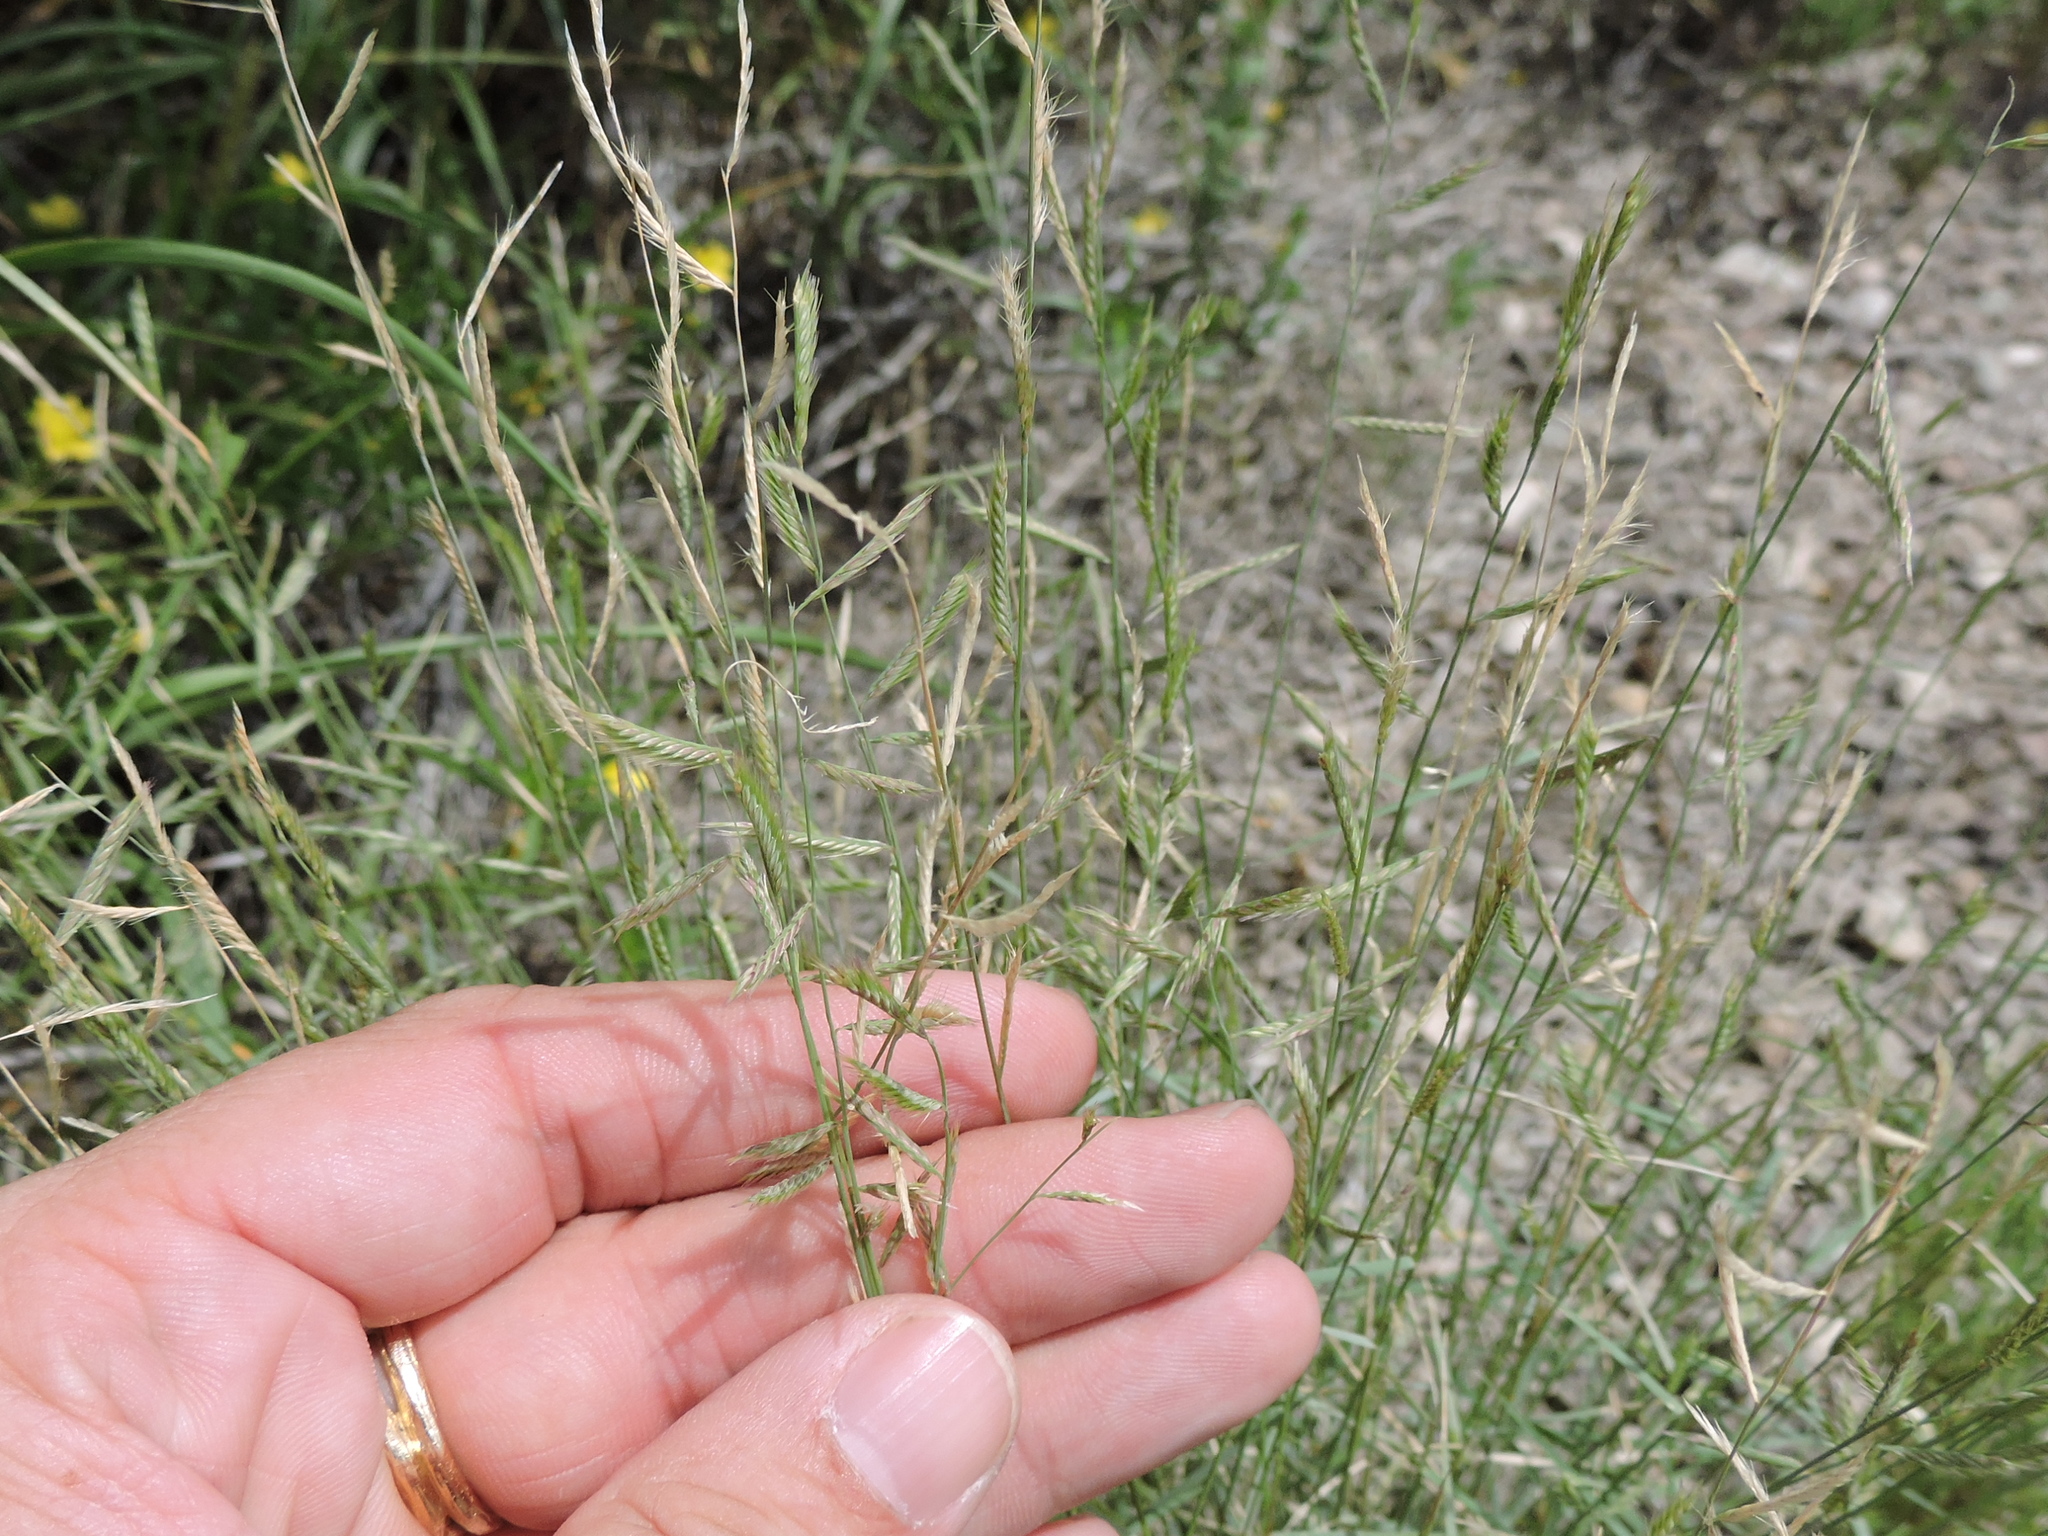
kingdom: Plantae
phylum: Tracheophyta
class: Liliopsida
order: Poales
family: Poaceae
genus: Bouteloua
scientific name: Bouteloua trifida
